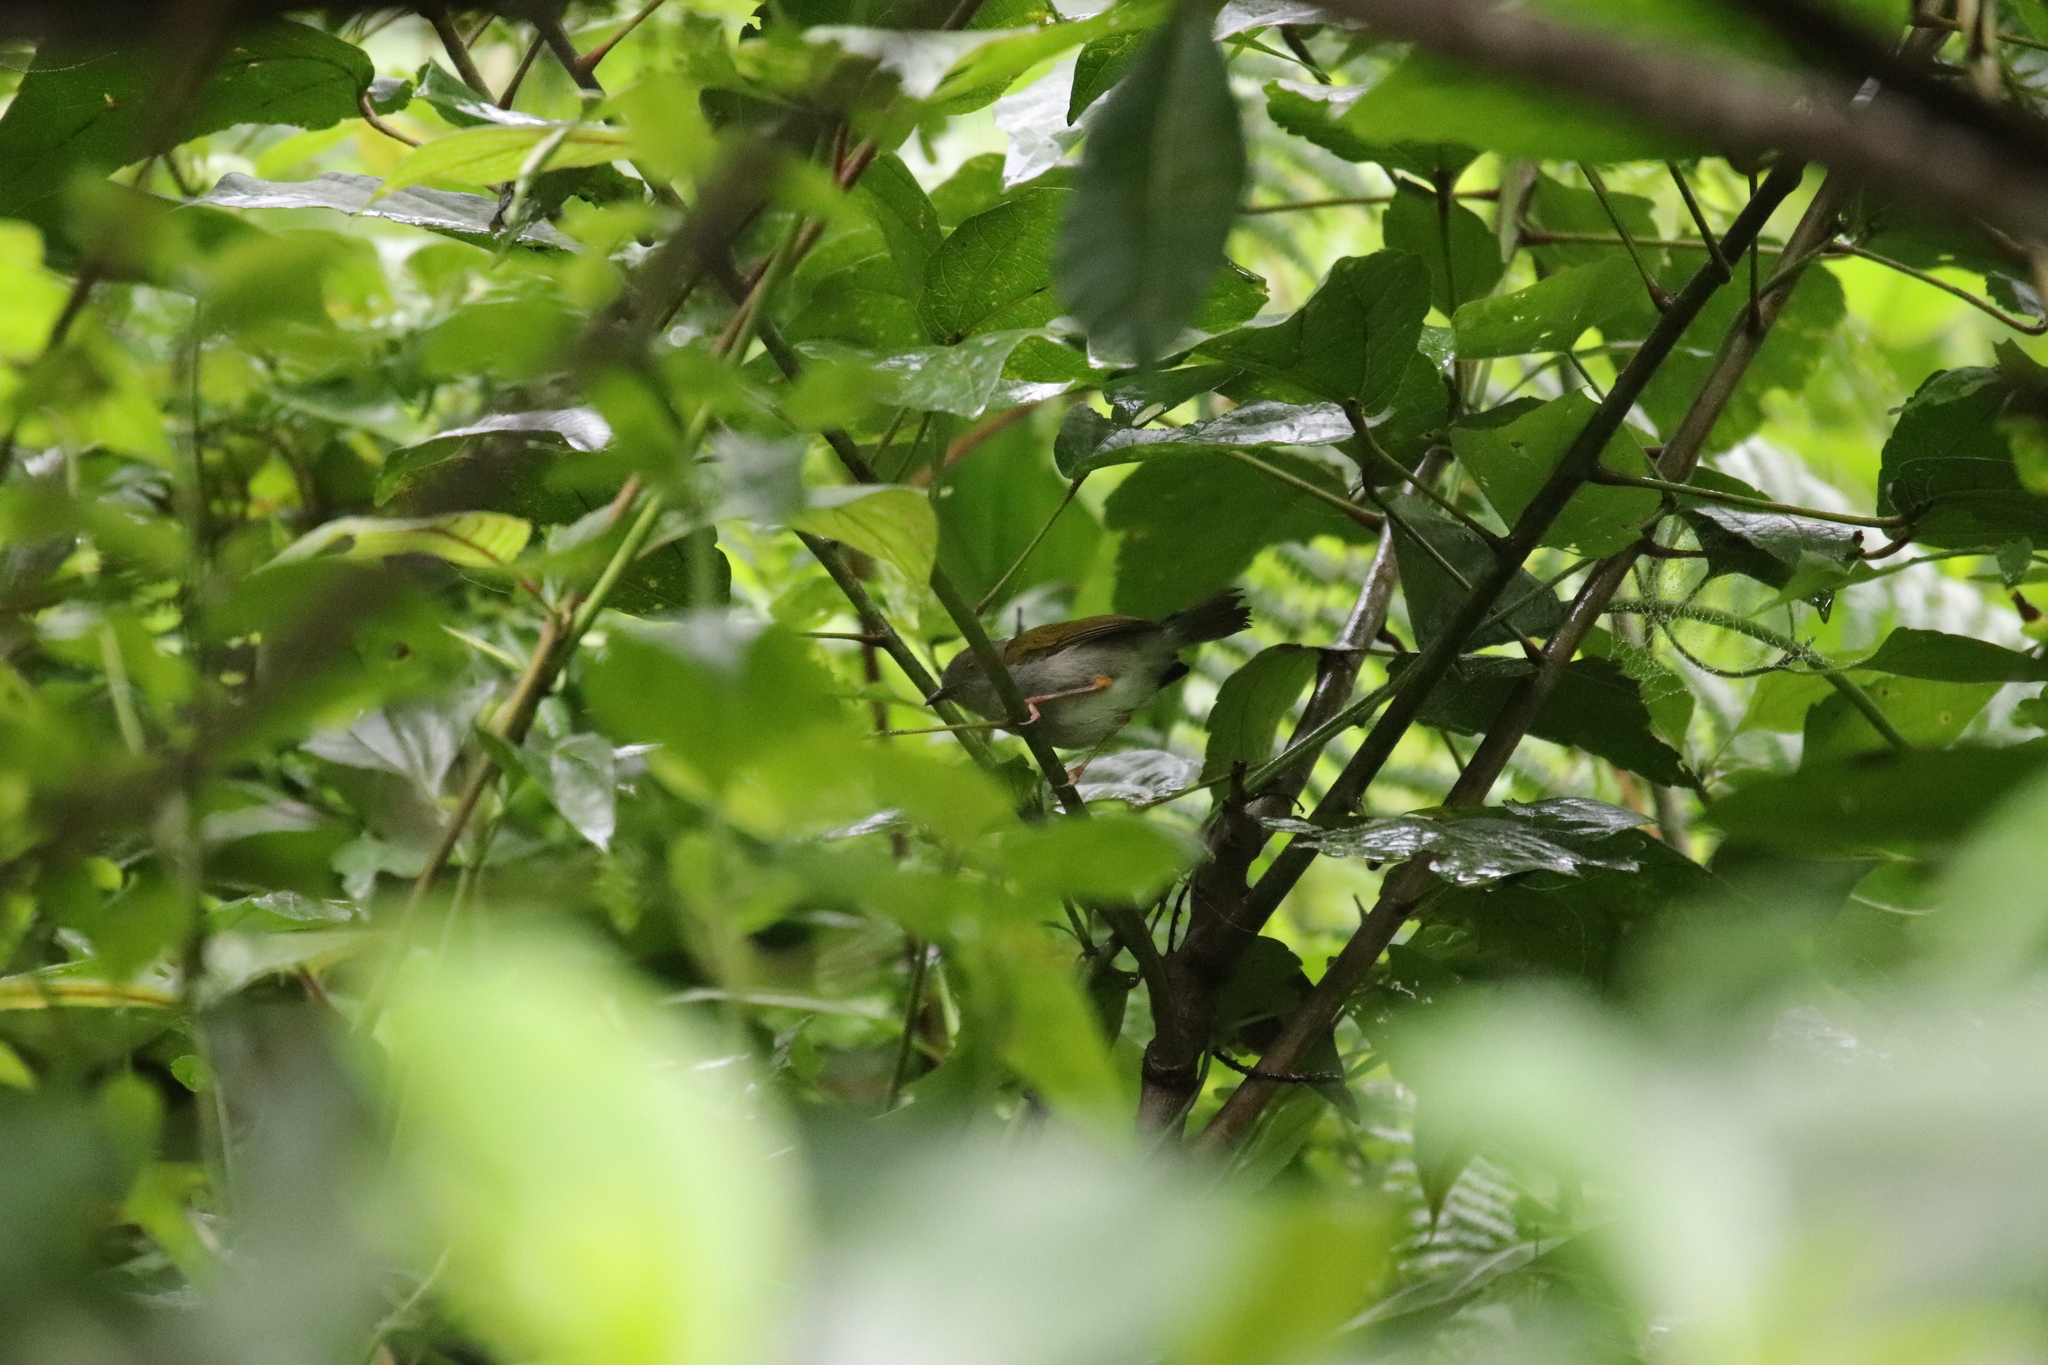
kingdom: Animalia
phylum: Chordata
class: Aves
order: Passeriformes
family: Cisticolidae
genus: Camaroptera
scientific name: Camaroptera brachyura
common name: Green-backed camaroptera
